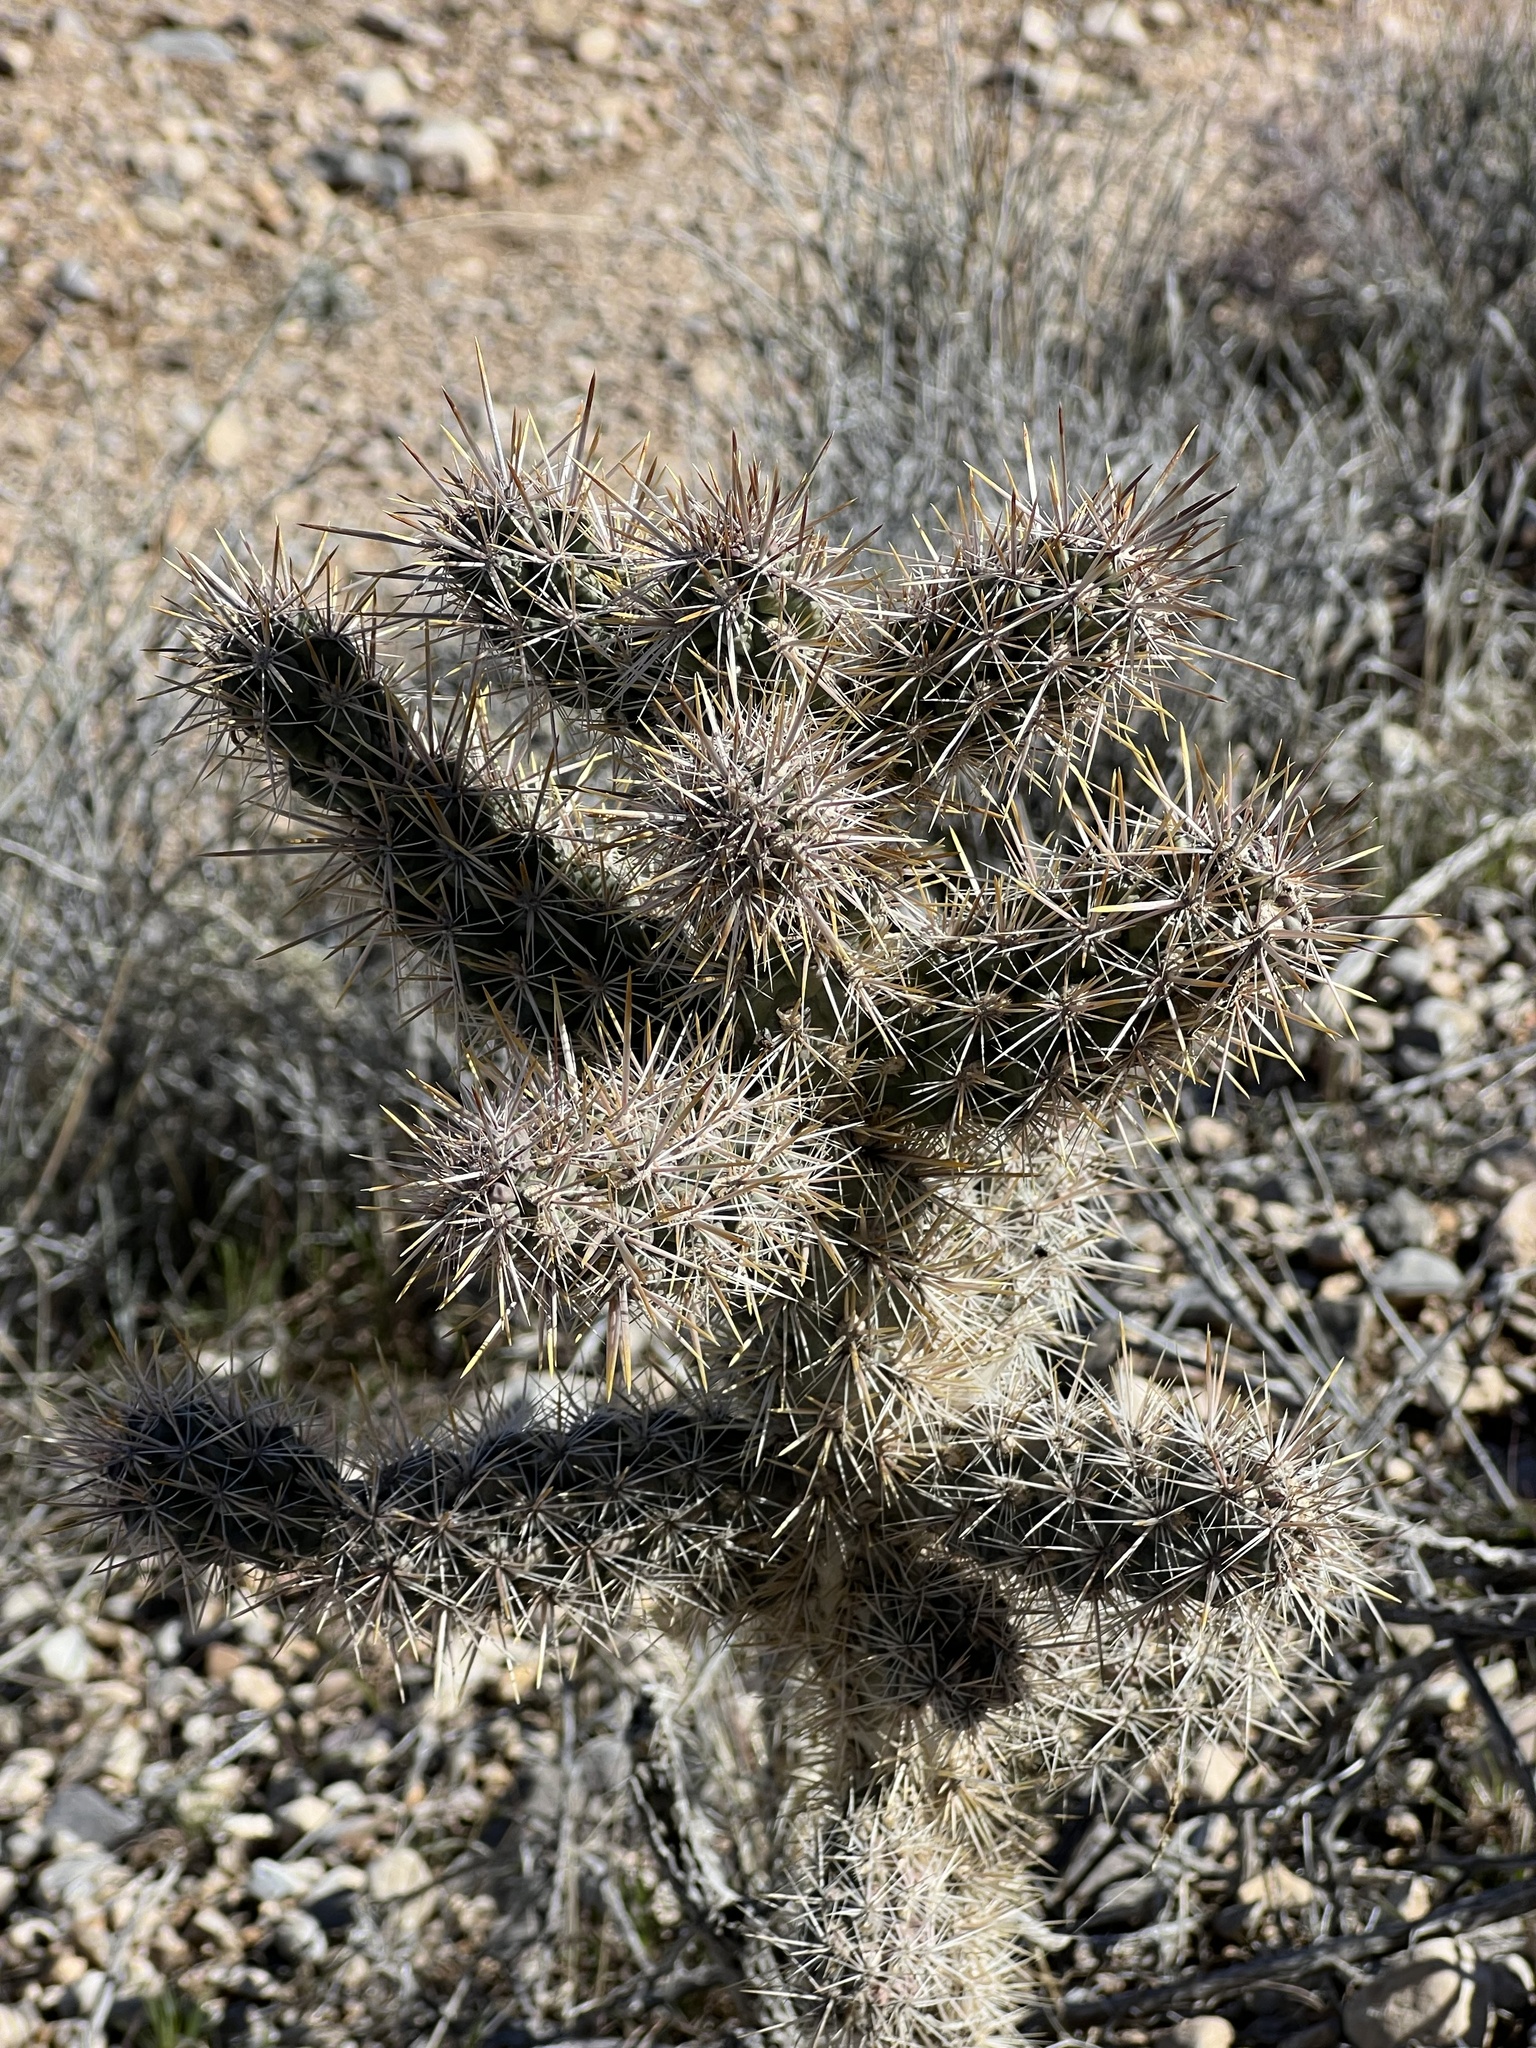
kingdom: Plantae
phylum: Tracheophyta
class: Magnoliopsida
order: Caryophyllales
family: Cactaceae
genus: Cylindropuntia
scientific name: Cylindropuntia echinocarpa
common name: Ground cholla
